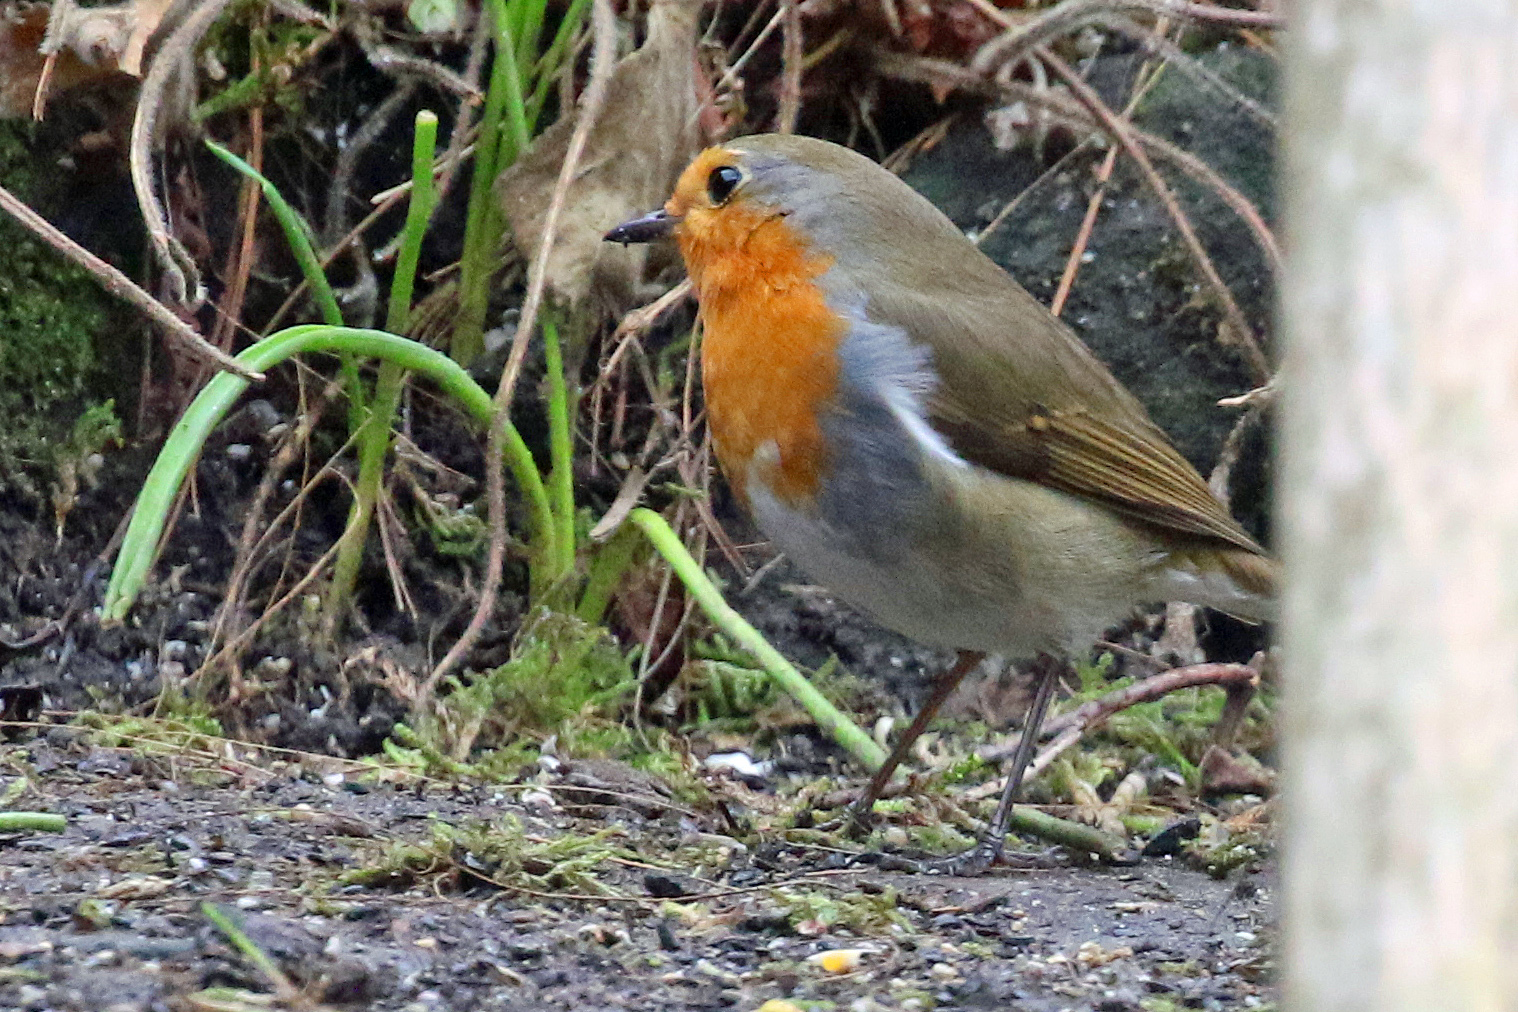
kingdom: Animalia
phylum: Chordata
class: Aves
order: Passeriformes
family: Muscicapidae
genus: Erithacus
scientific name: Erithacus rubecula
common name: European robin
